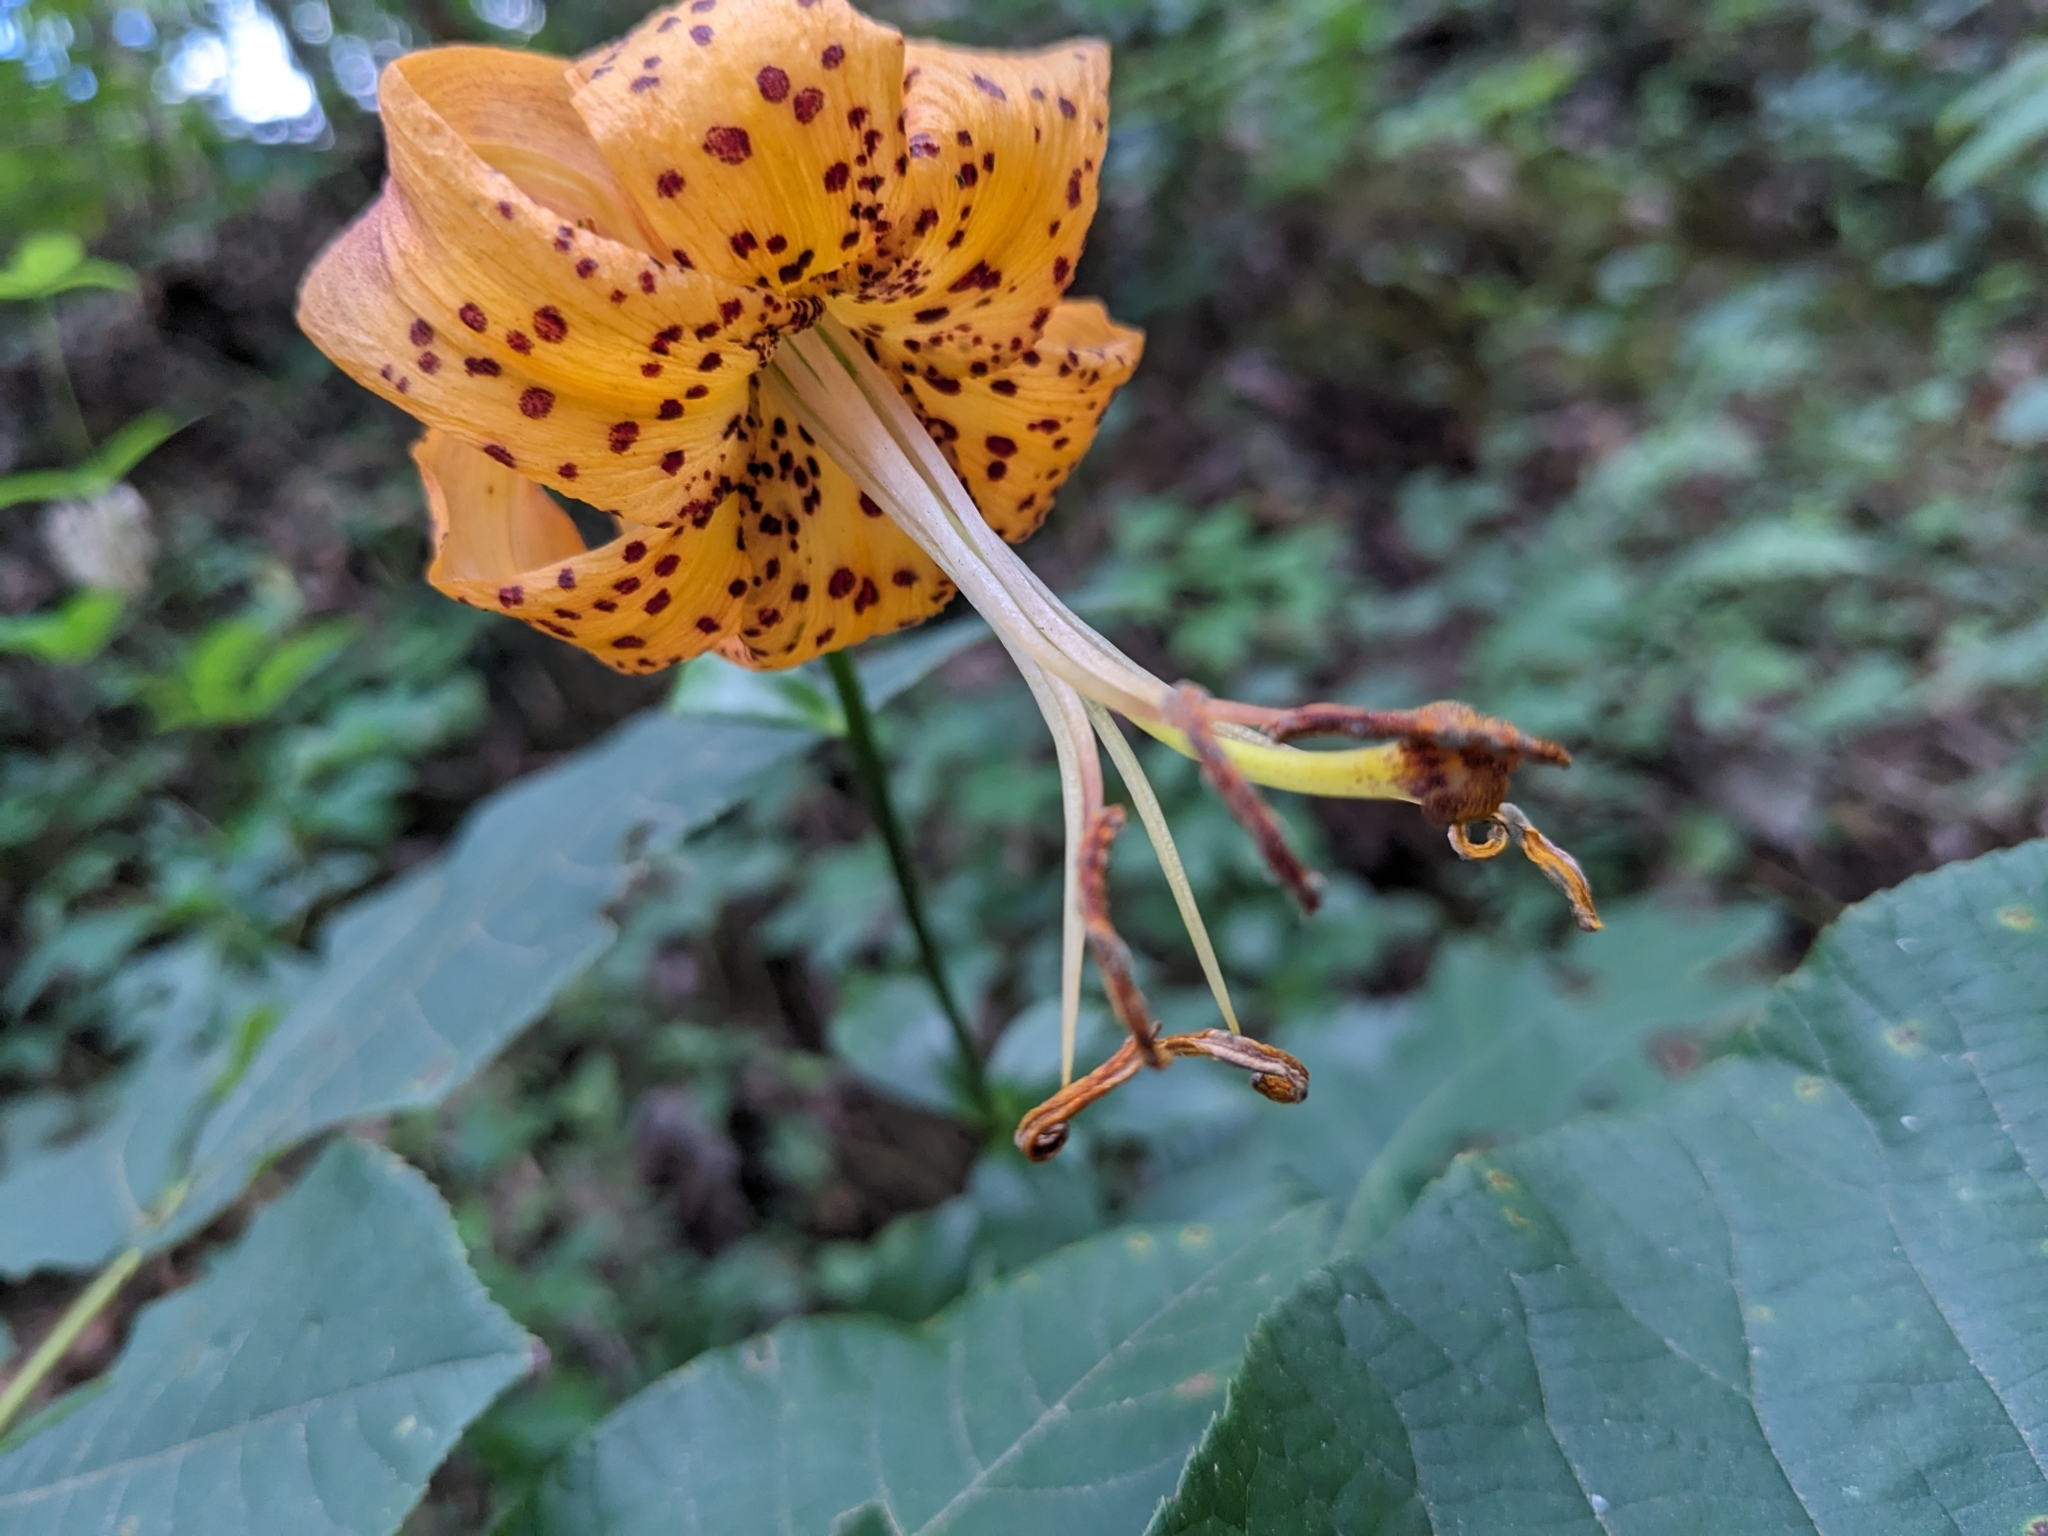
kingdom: Plantae
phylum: Tracheophyta
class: Liliopsida
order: Liliales
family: Liliaceae
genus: Lilium
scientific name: Lilium michauxii
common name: Carolina lily
